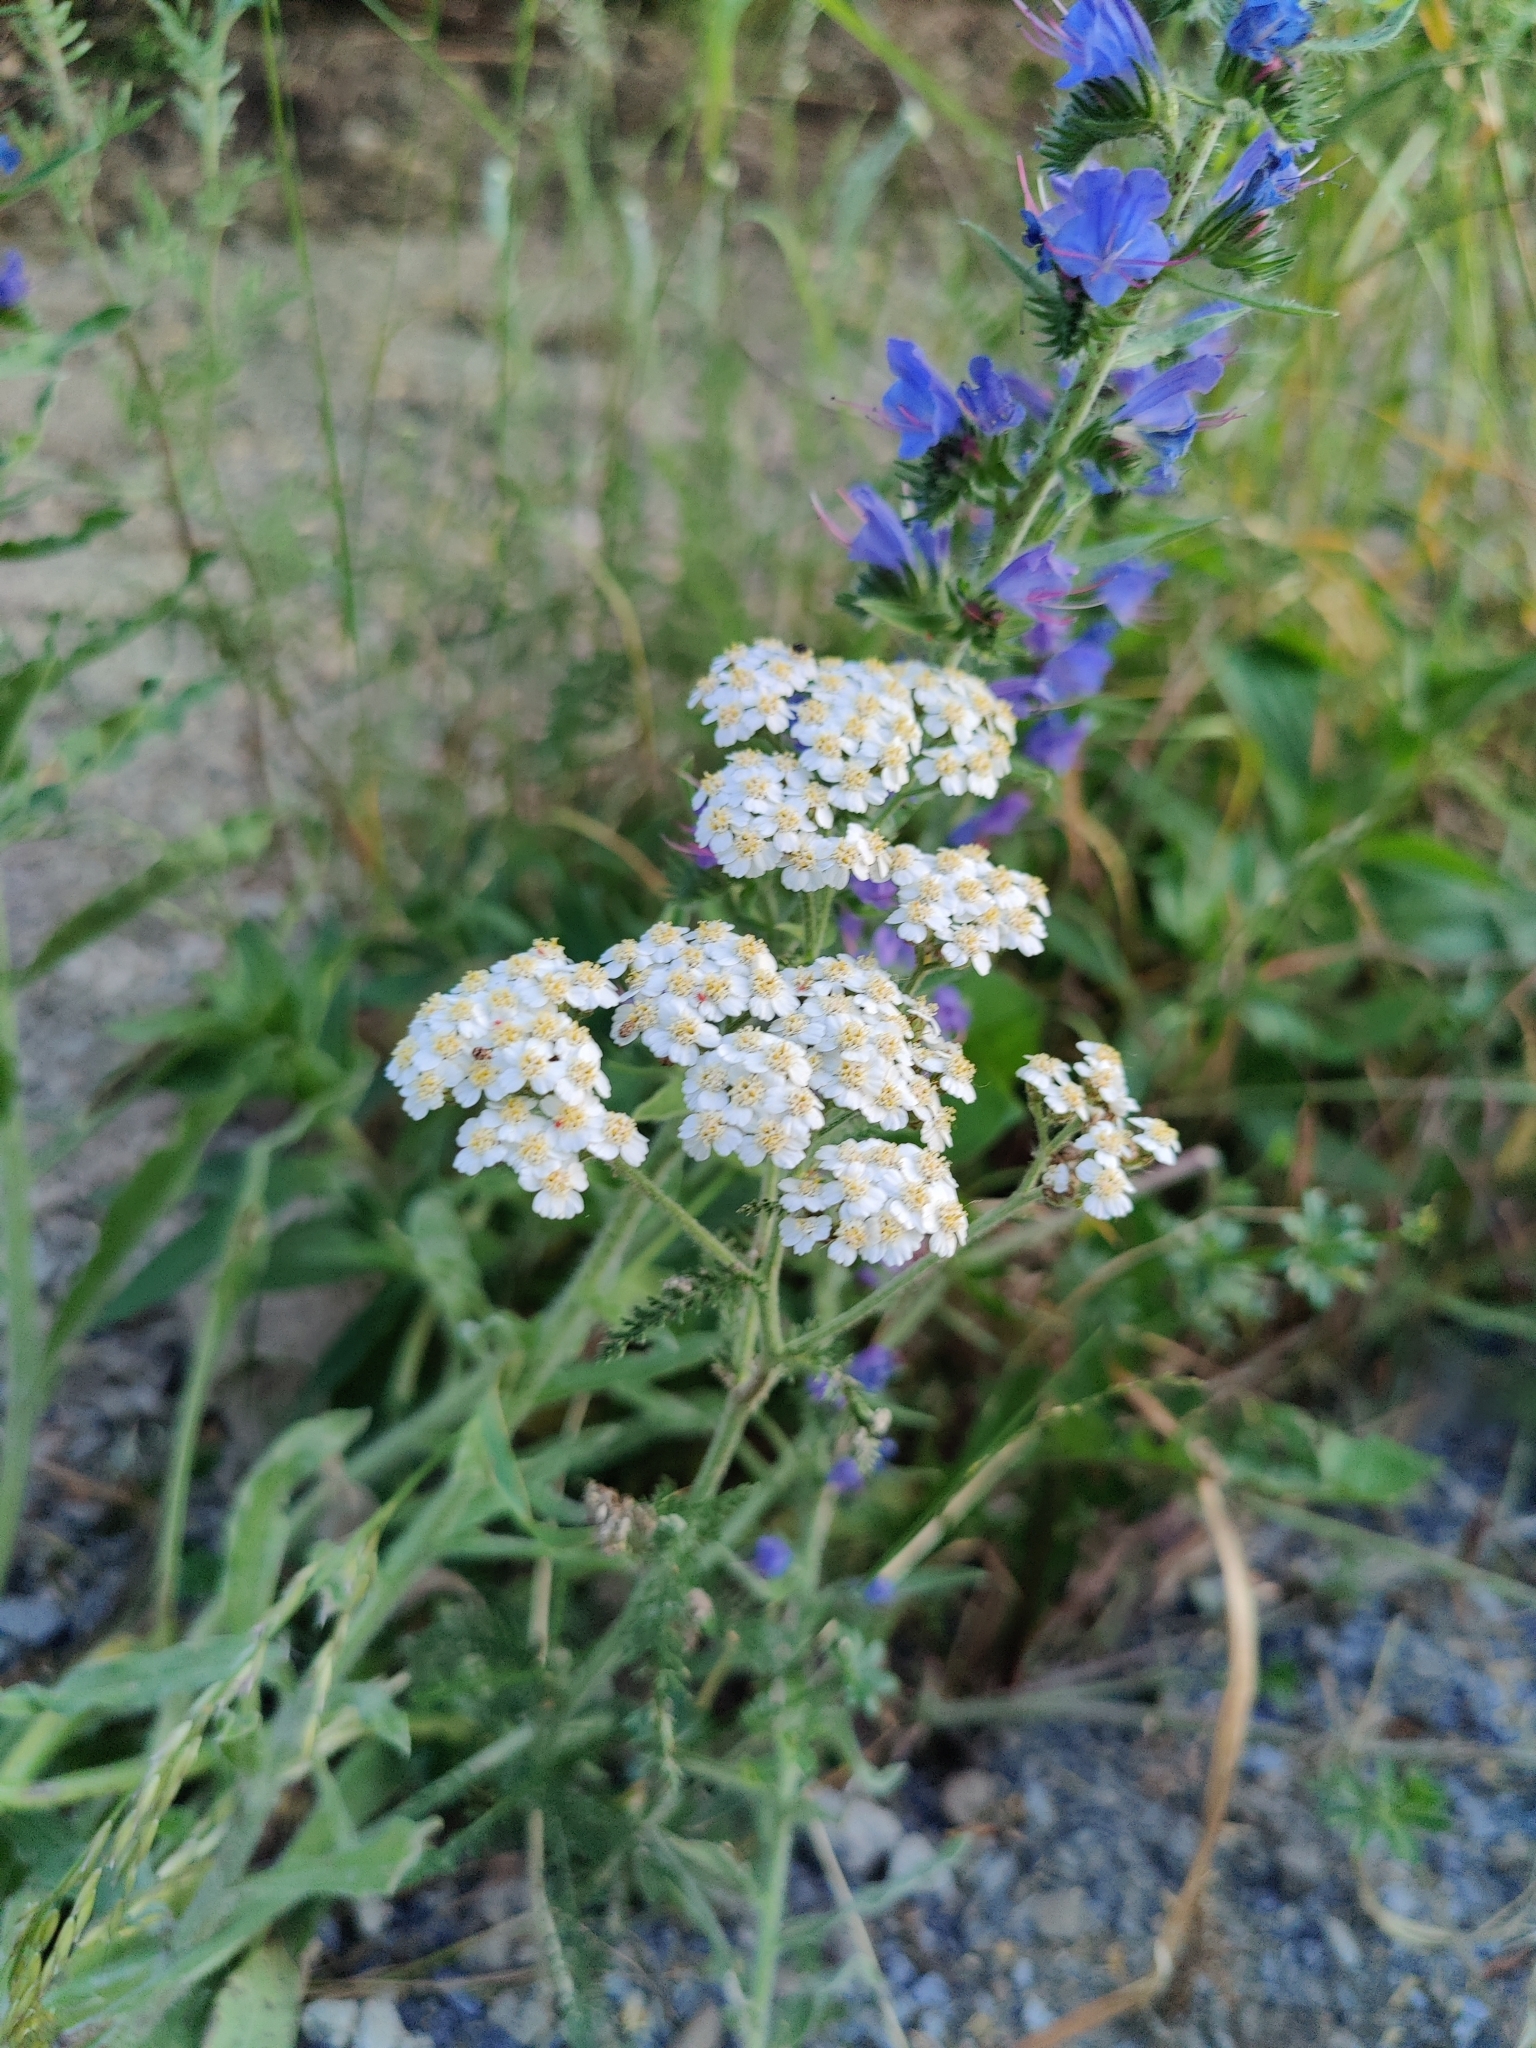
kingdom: Plantae
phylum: Tracheophyta
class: Magnoliopsida
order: Asterales
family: Asteraceae
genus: Achillea
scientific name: Achillea millefolium
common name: Yarrow
